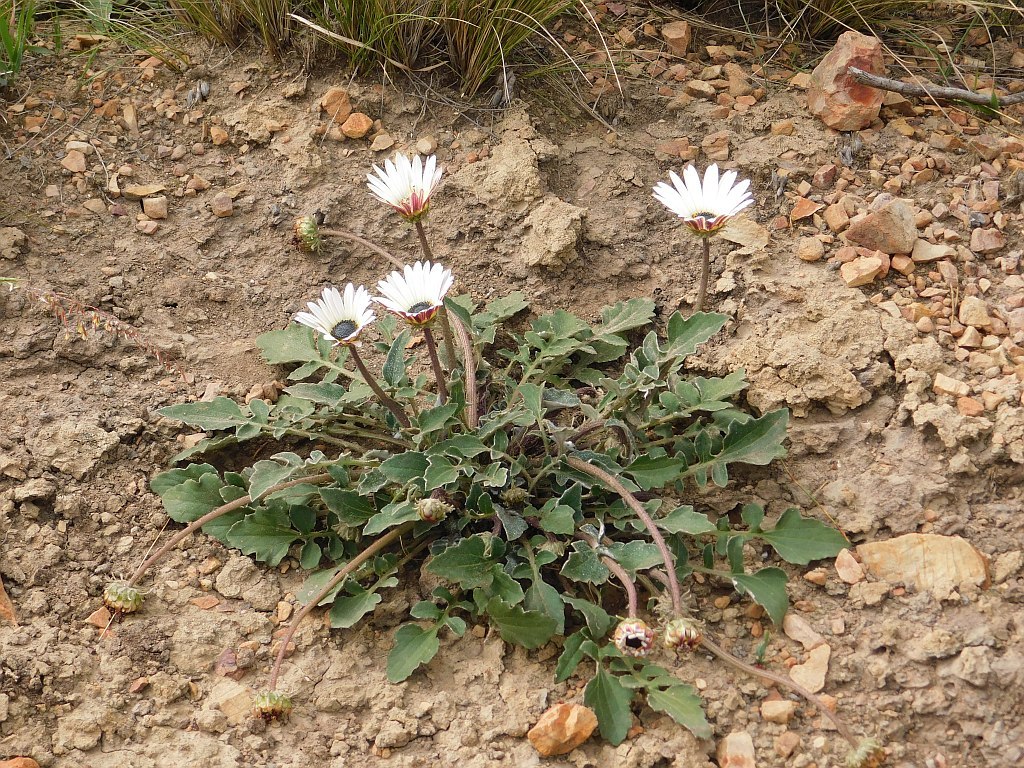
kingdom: Plantae
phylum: Tracheophyta
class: Magnoliopsida
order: Asterales
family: Asteraceae
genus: Arctotis
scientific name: Arctotis acaulis
